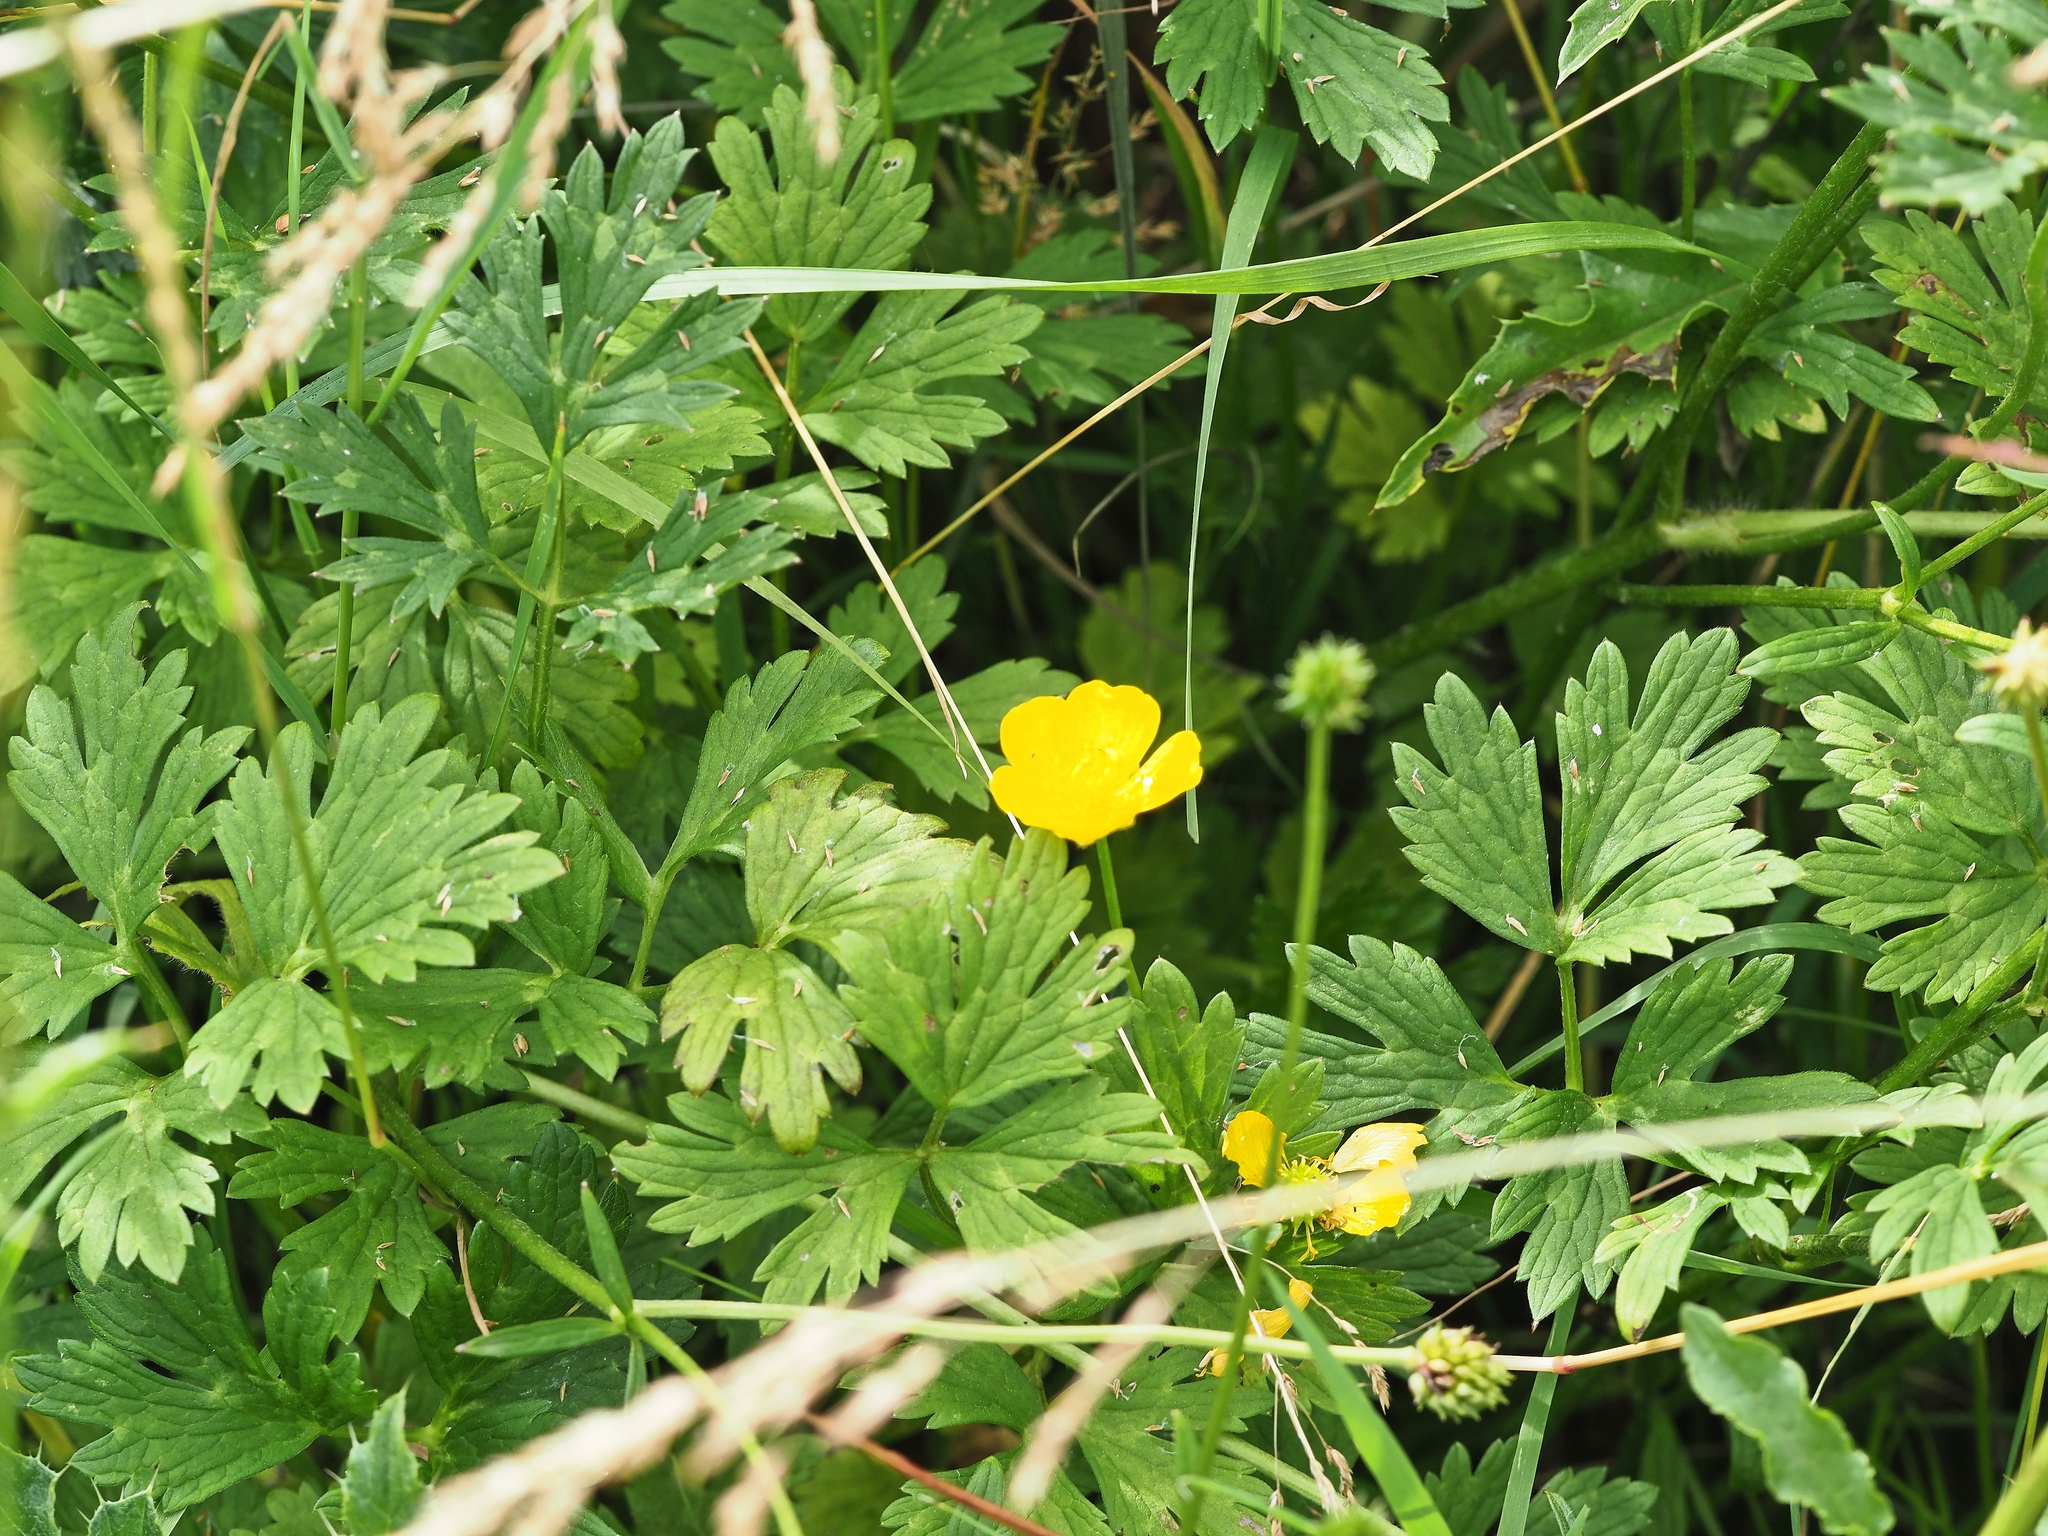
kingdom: Plantae
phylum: Tracheophyta
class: Magnoliopsida
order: Ranunculales
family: Ranunculaceae
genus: Ranunculus
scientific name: Ranunculus repens
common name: Creeping buttercup
